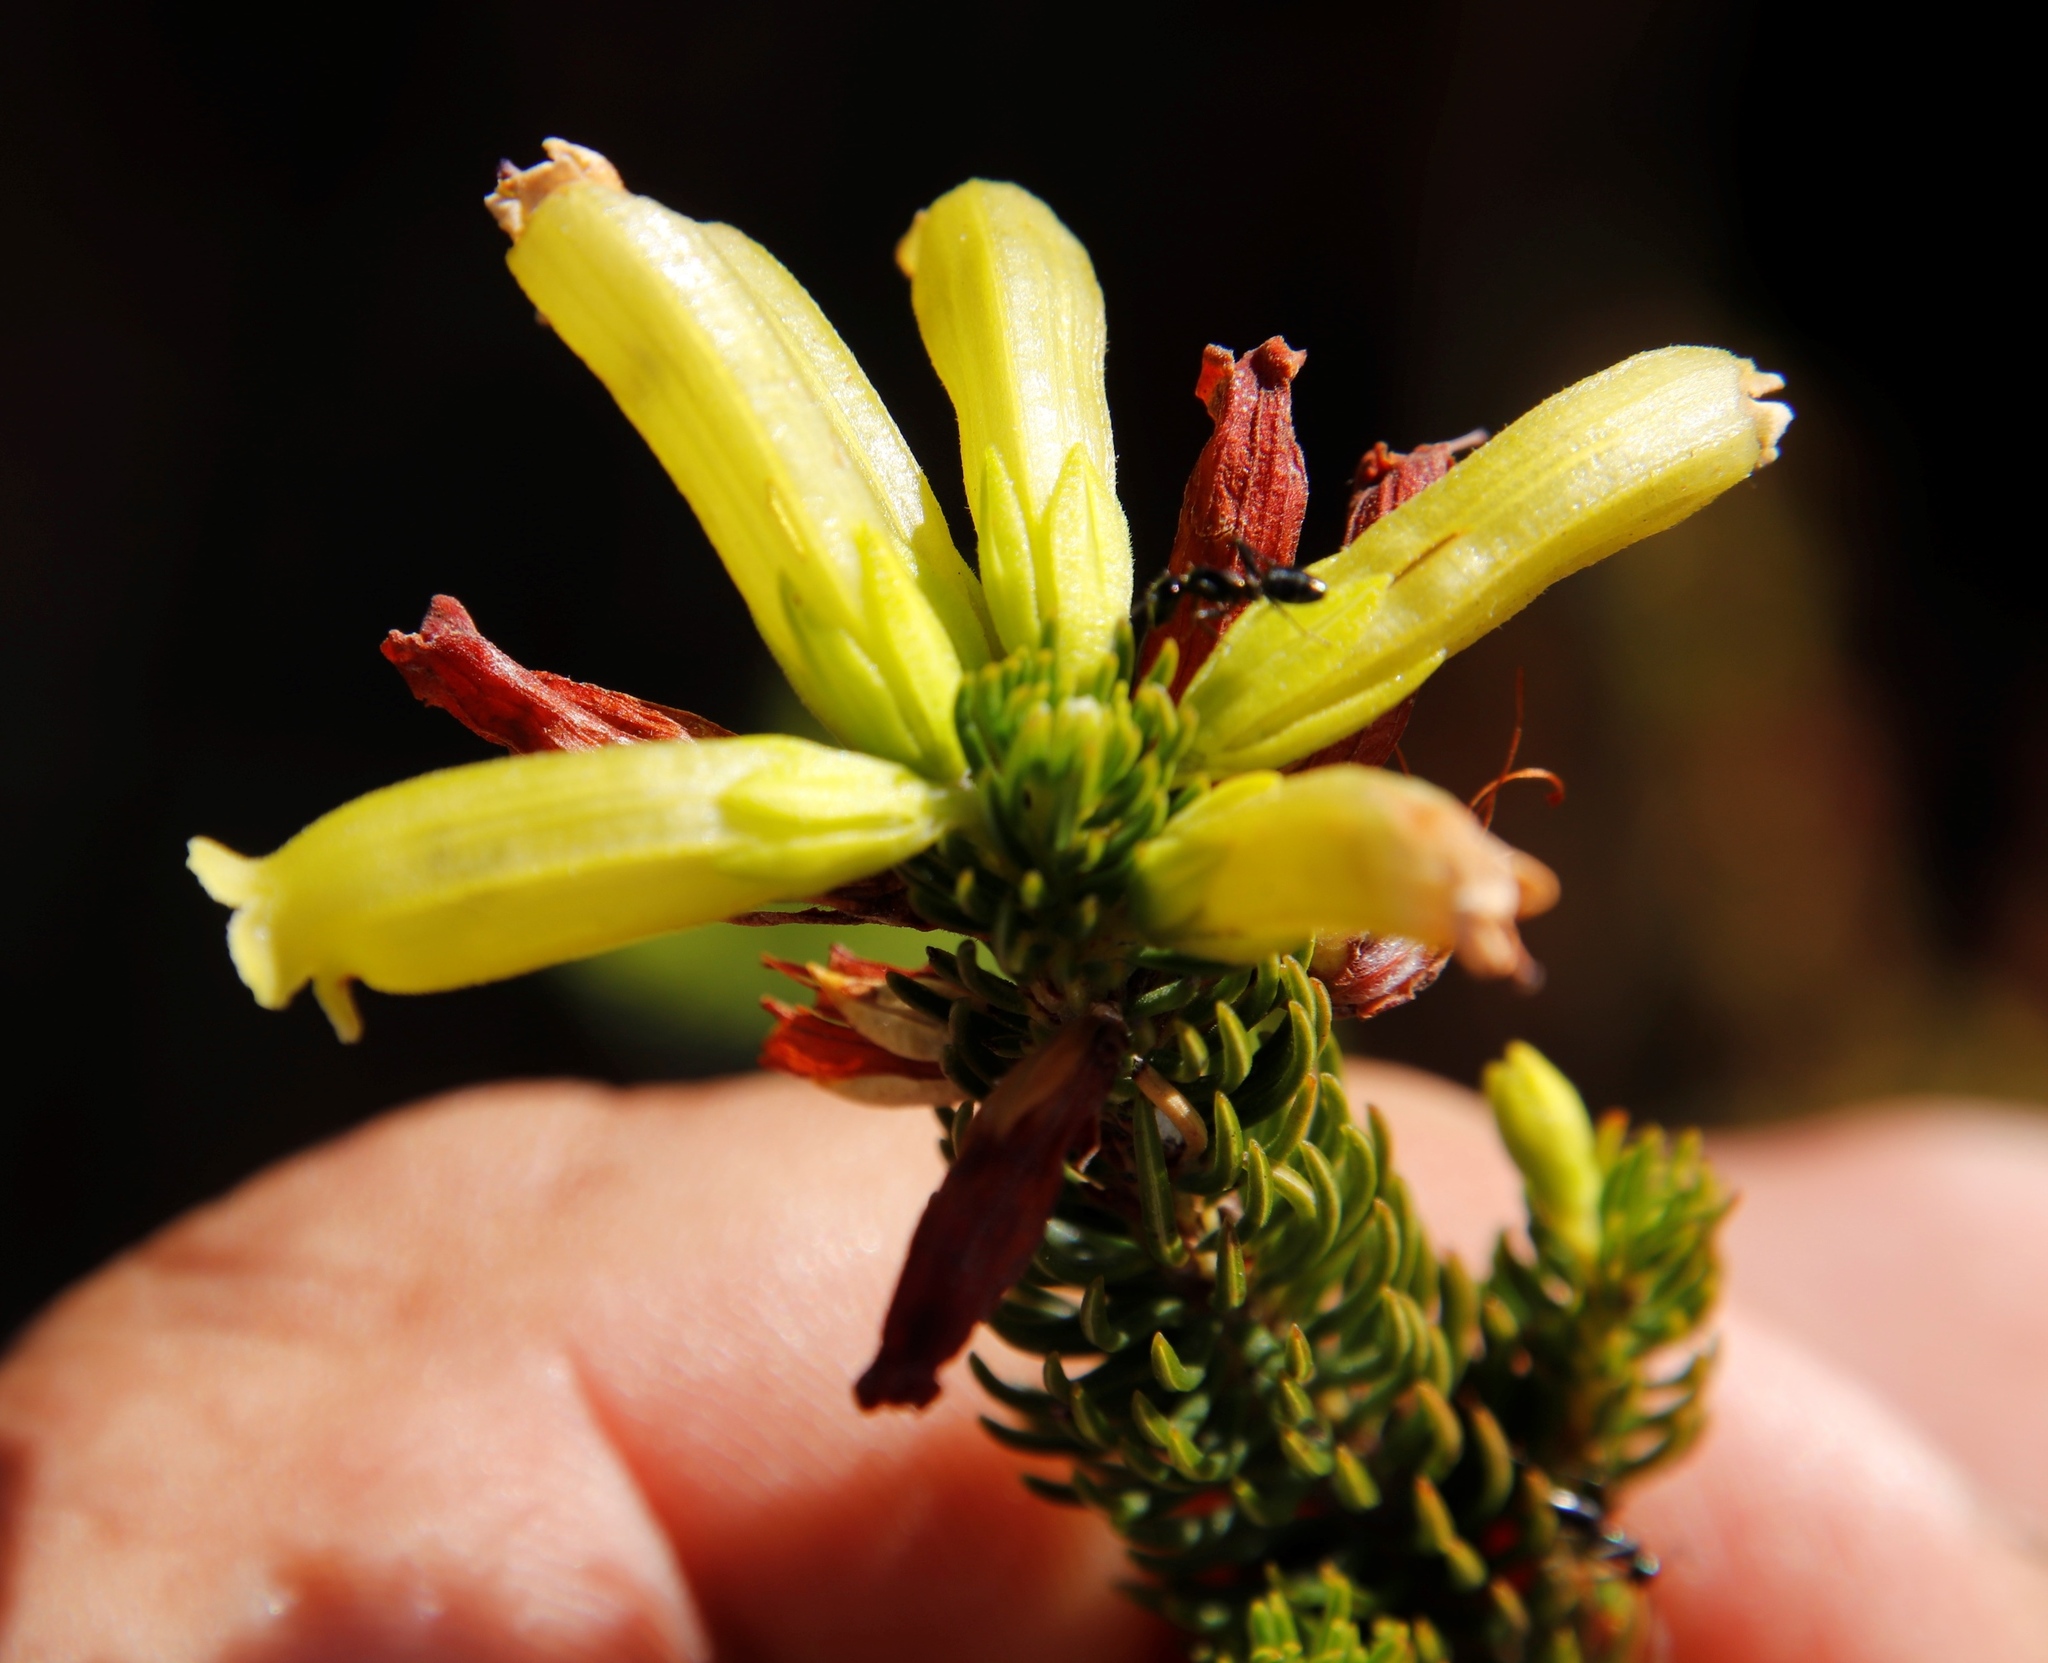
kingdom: Plantae
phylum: Tracheophyta
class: Magnoliopsida
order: Ericales
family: Ericaceae
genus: Erica
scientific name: Erica viscaria
